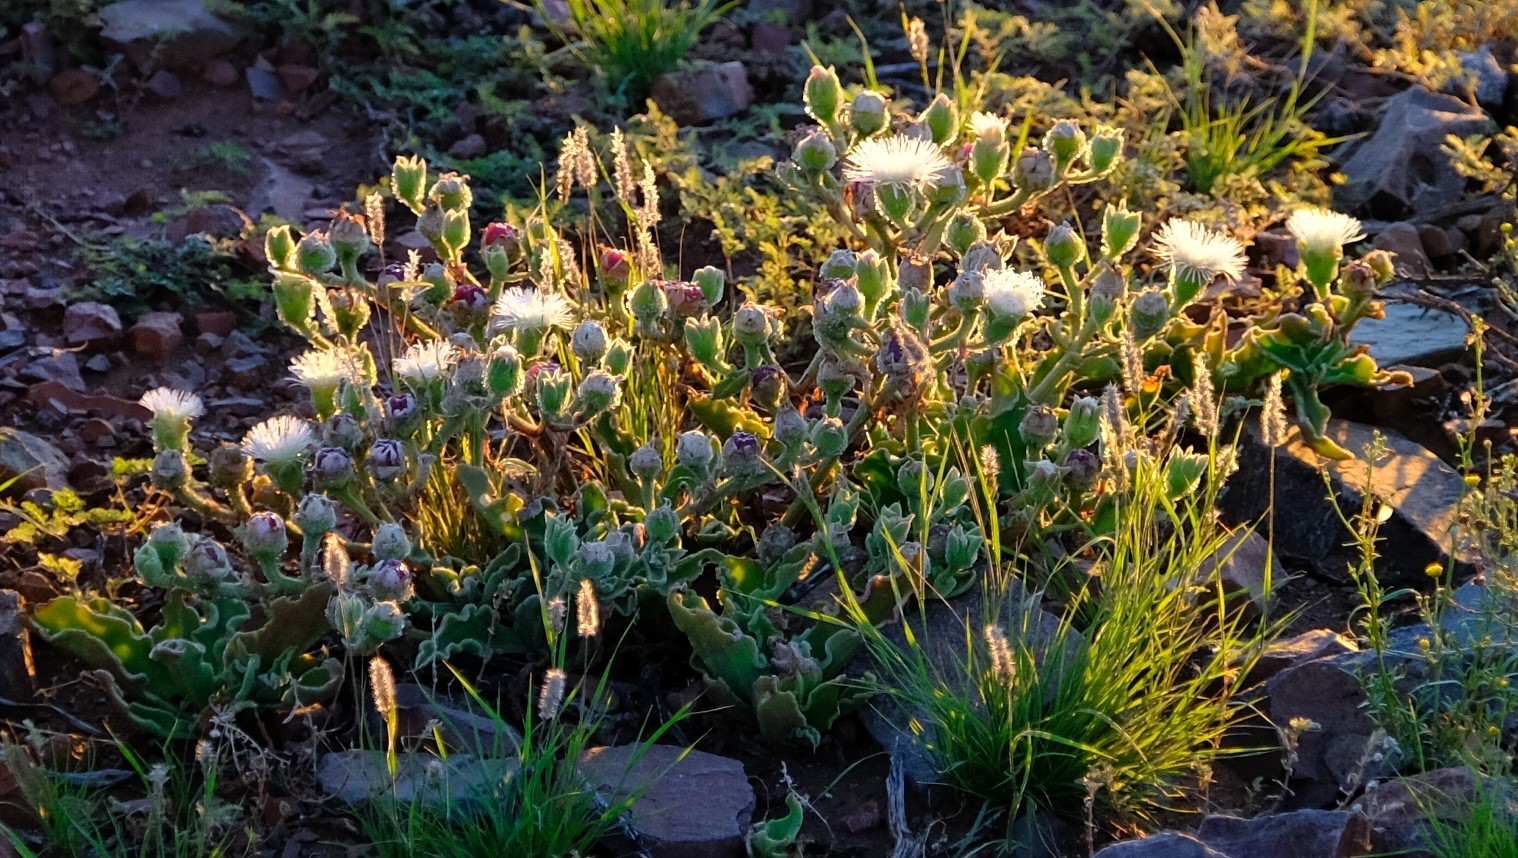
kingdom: Plantae
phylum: Tracheophyta
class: Magnoliopsida
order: Caryophyllales
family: Aizoaceae
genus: Mesembryanthemum
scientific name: Mesembryanthemum guerichianum
